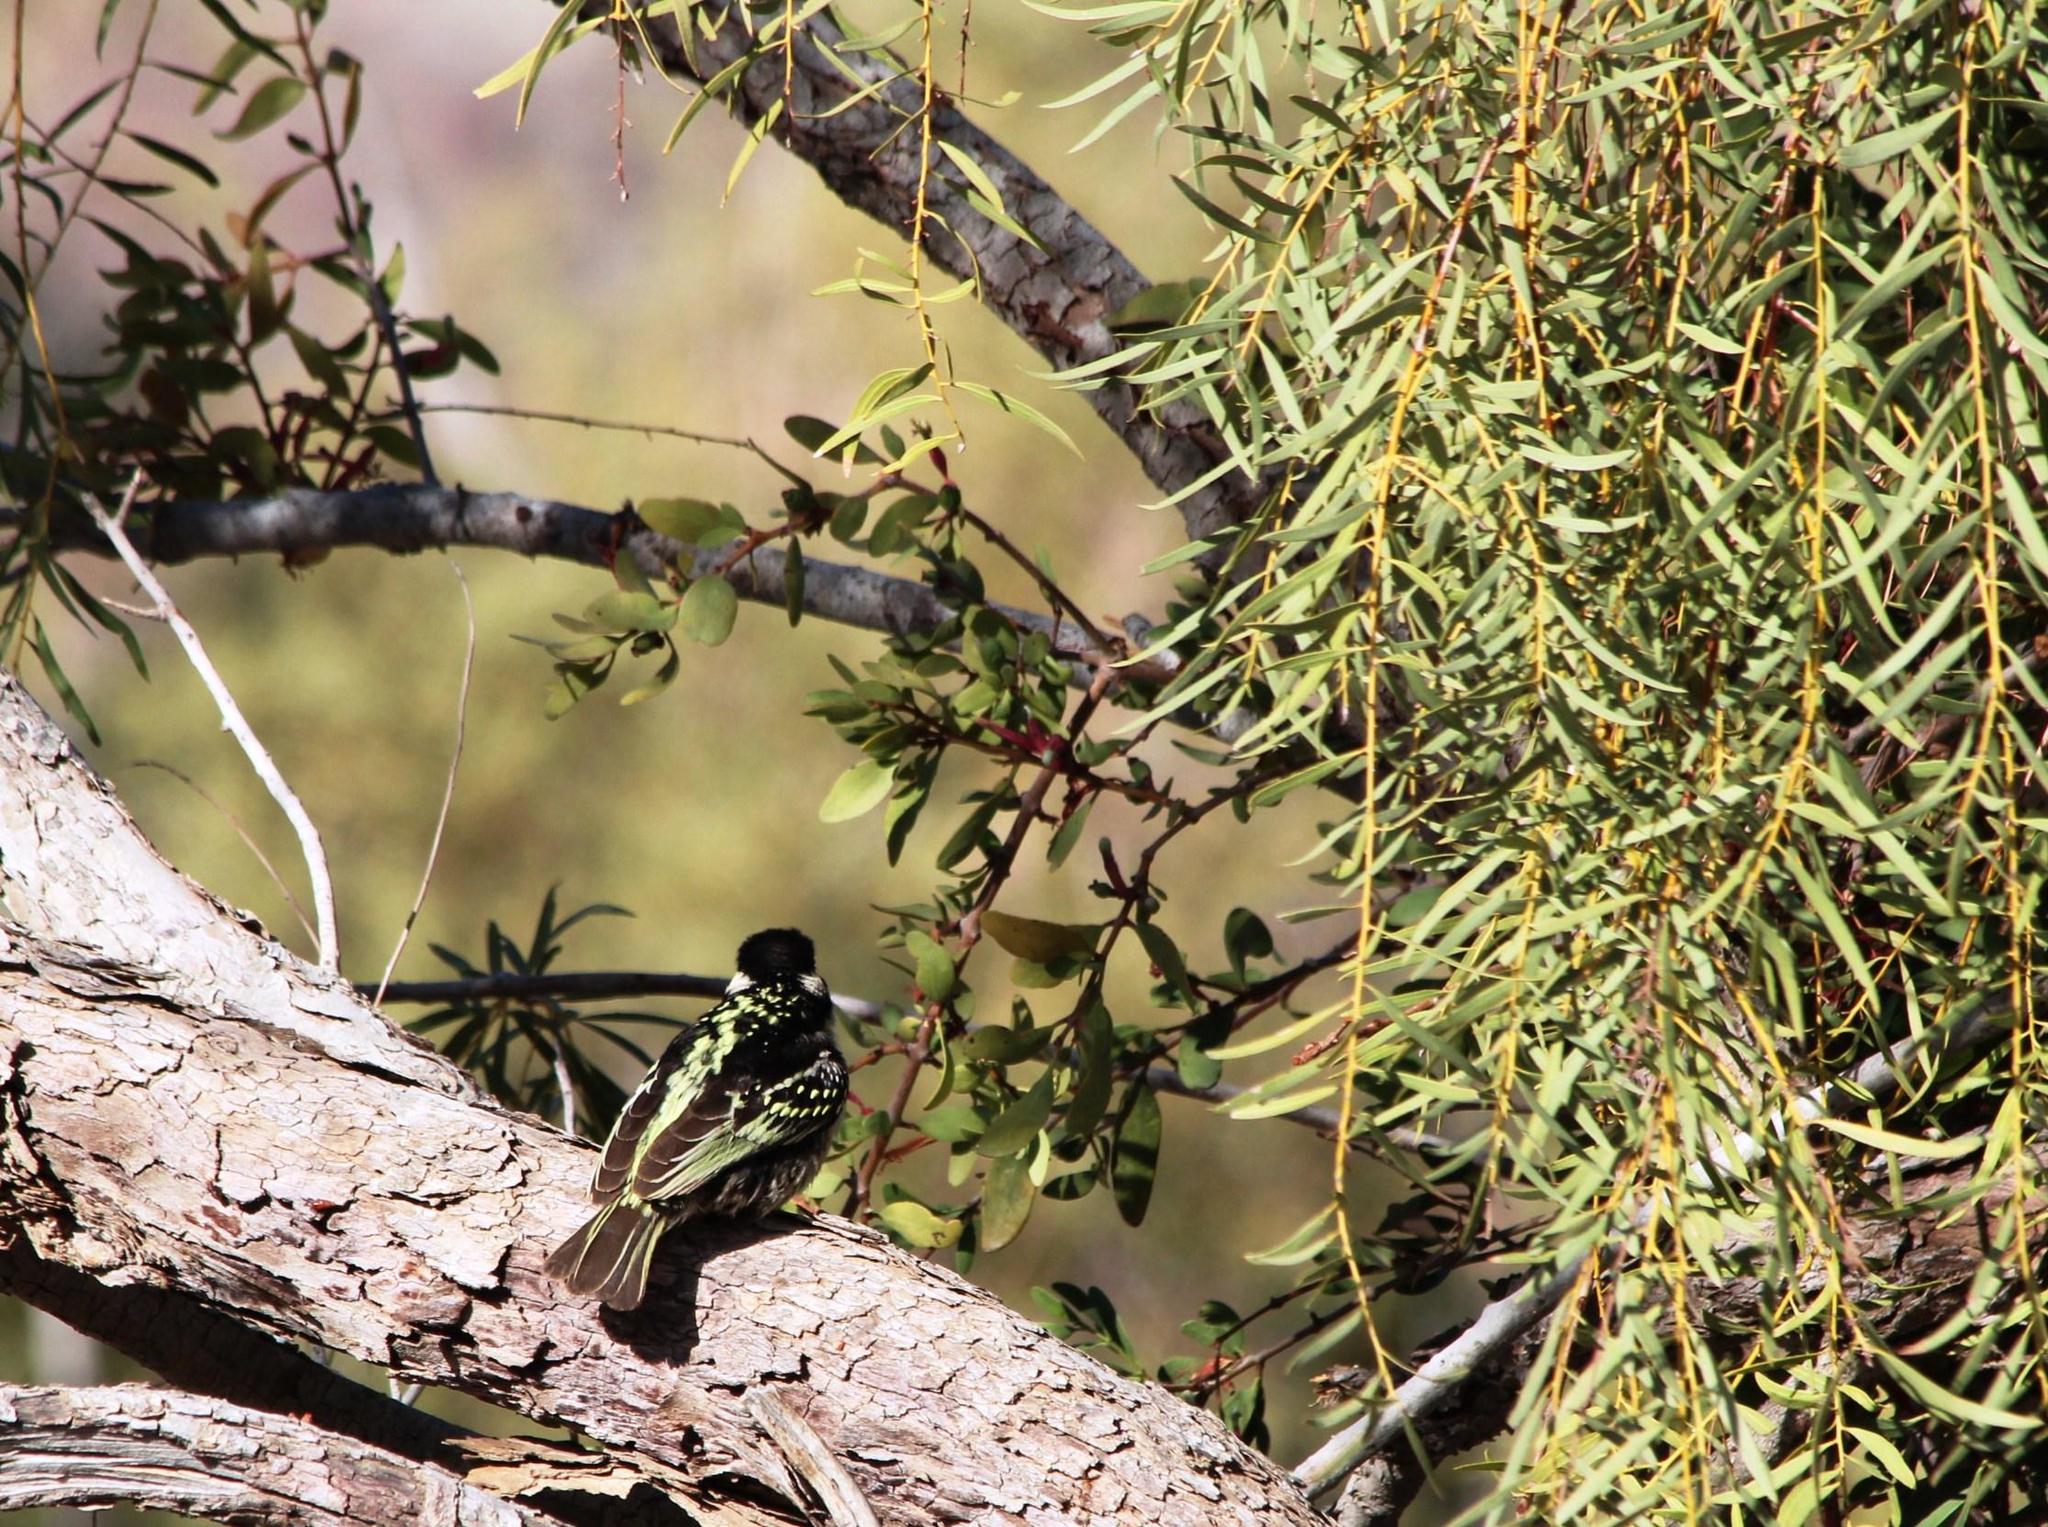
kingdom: Plantae
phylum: Tracheophyta
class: Magnoliopsida
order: Ericales
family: Ebenaceae
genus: Euclea
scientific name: Euclea pseudebenus
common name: Black ebony
